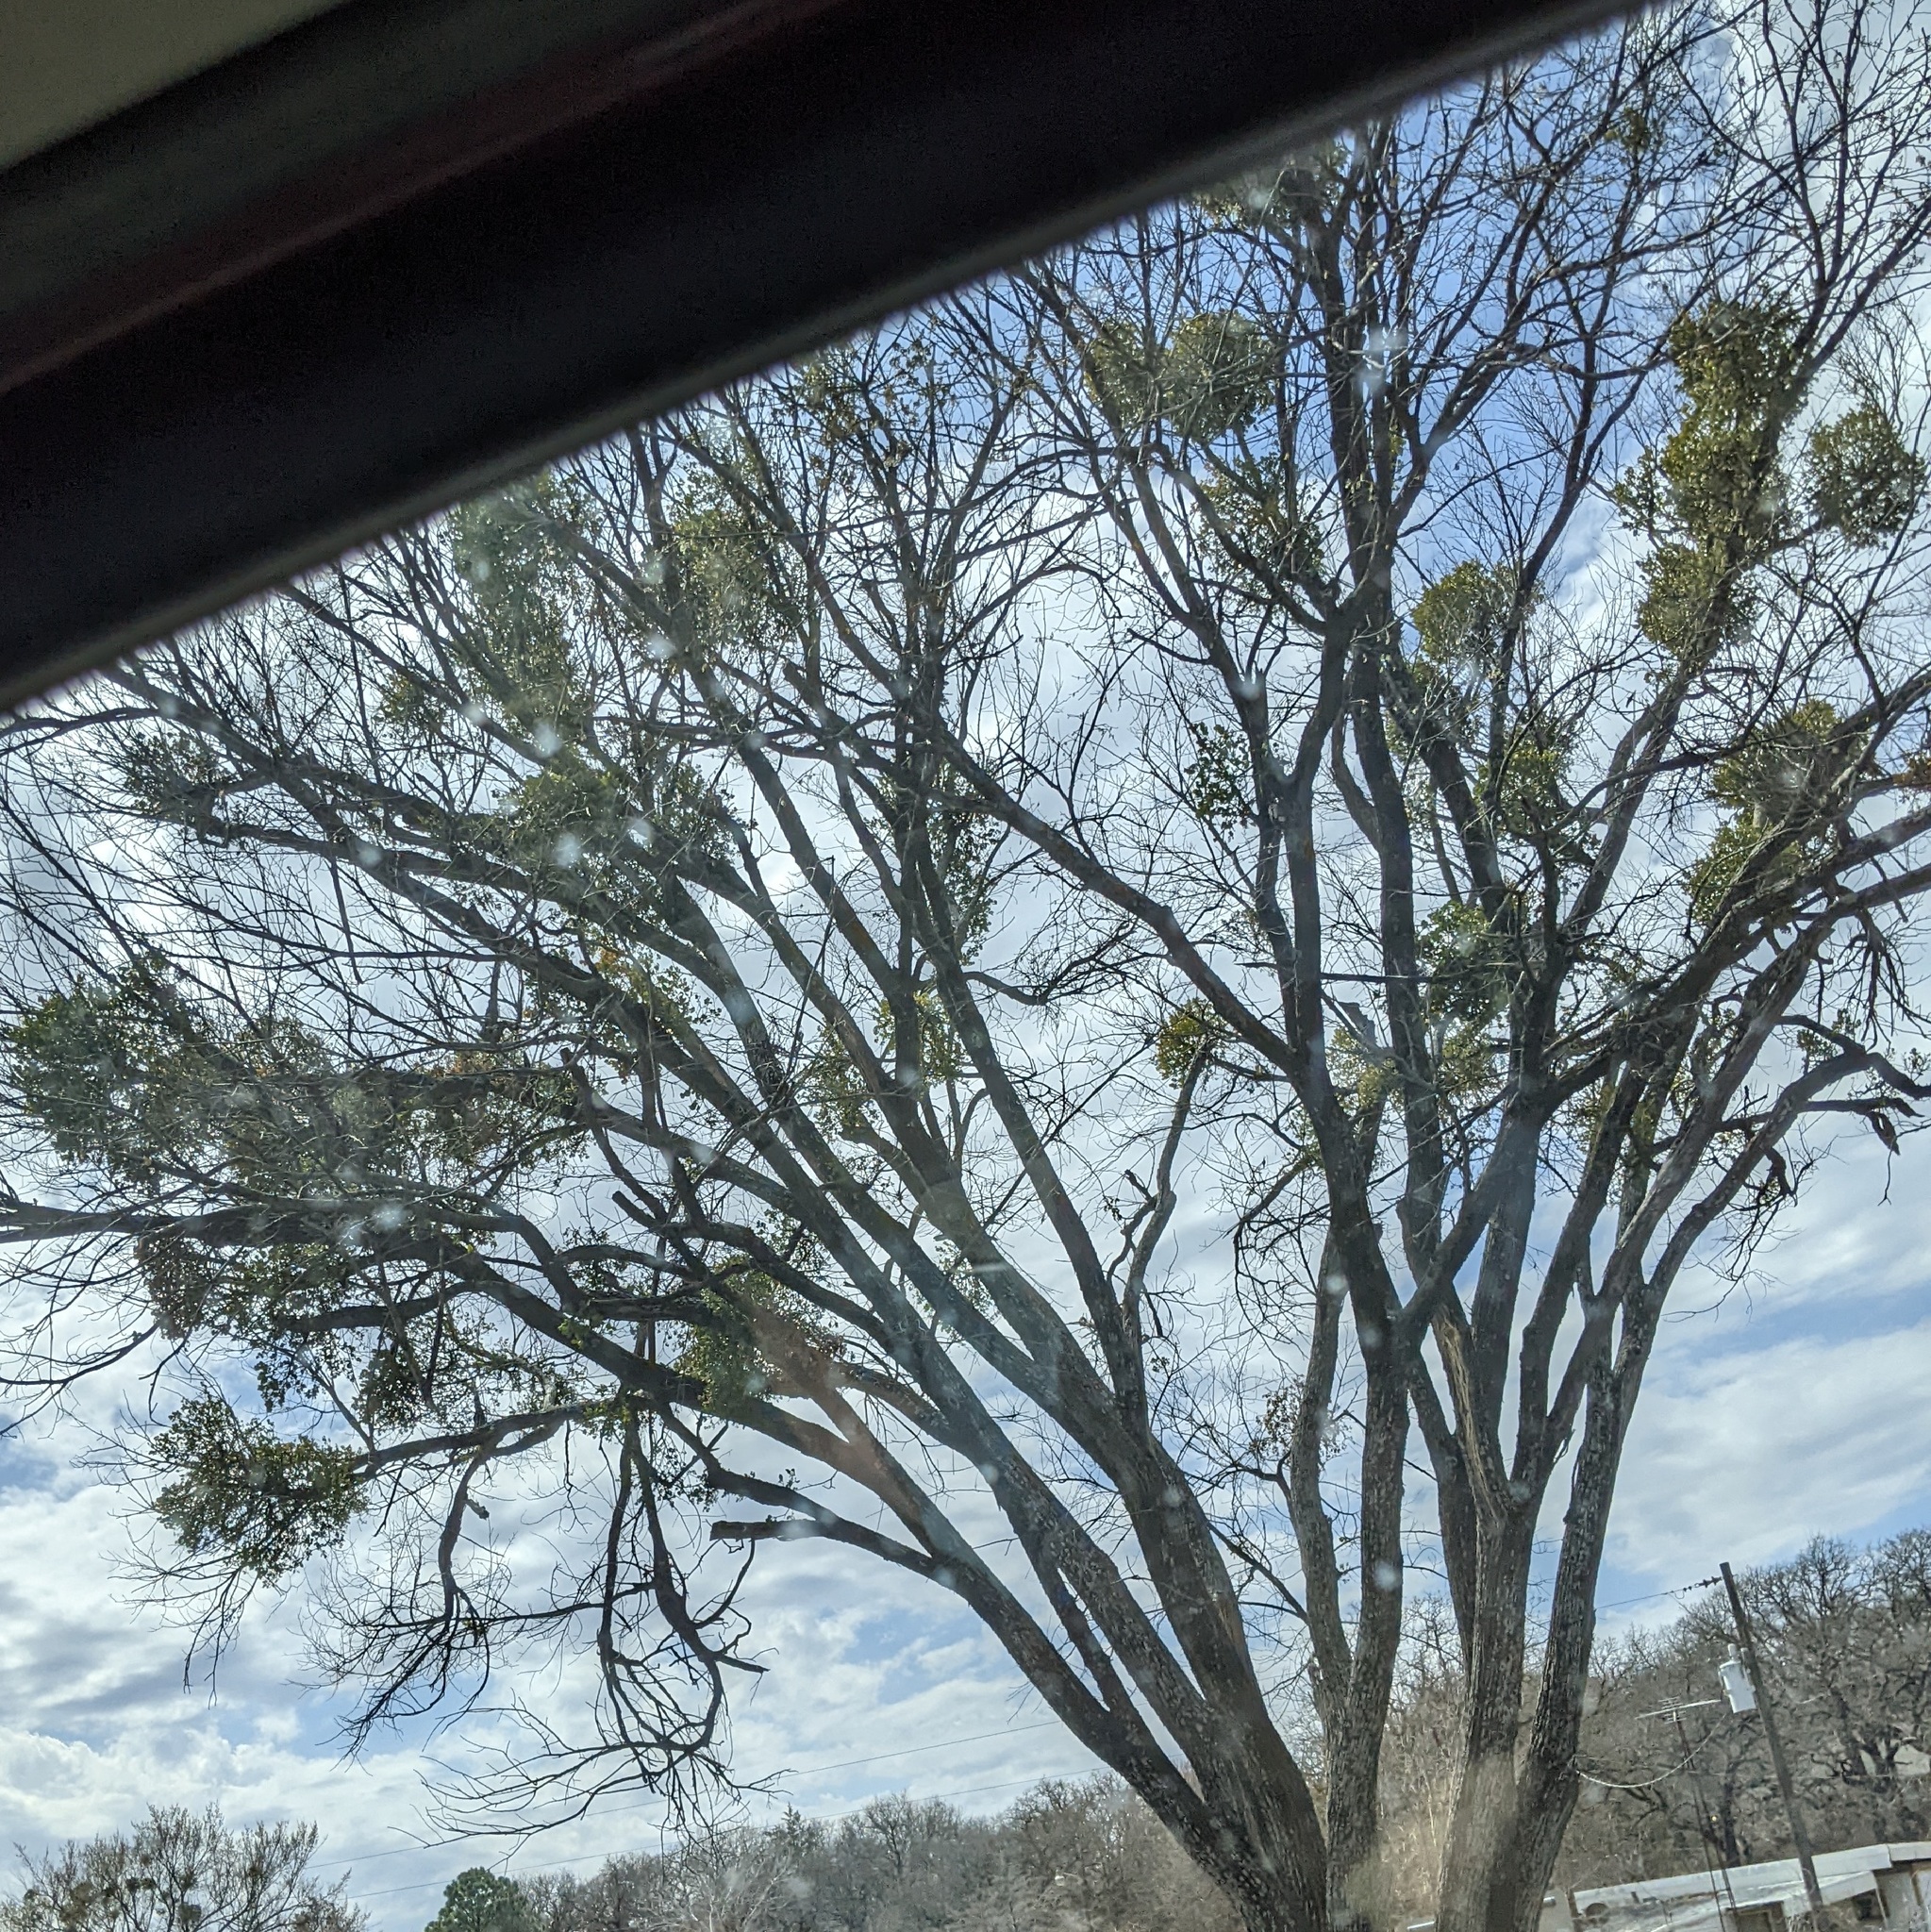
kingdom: Plantae
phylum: Tracheophyta
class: Magnoliopsida
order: Santalales
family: Viscaceae
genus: Phoradendron
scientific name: Phoradendron leucarpum
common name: Pacific mistletoe
